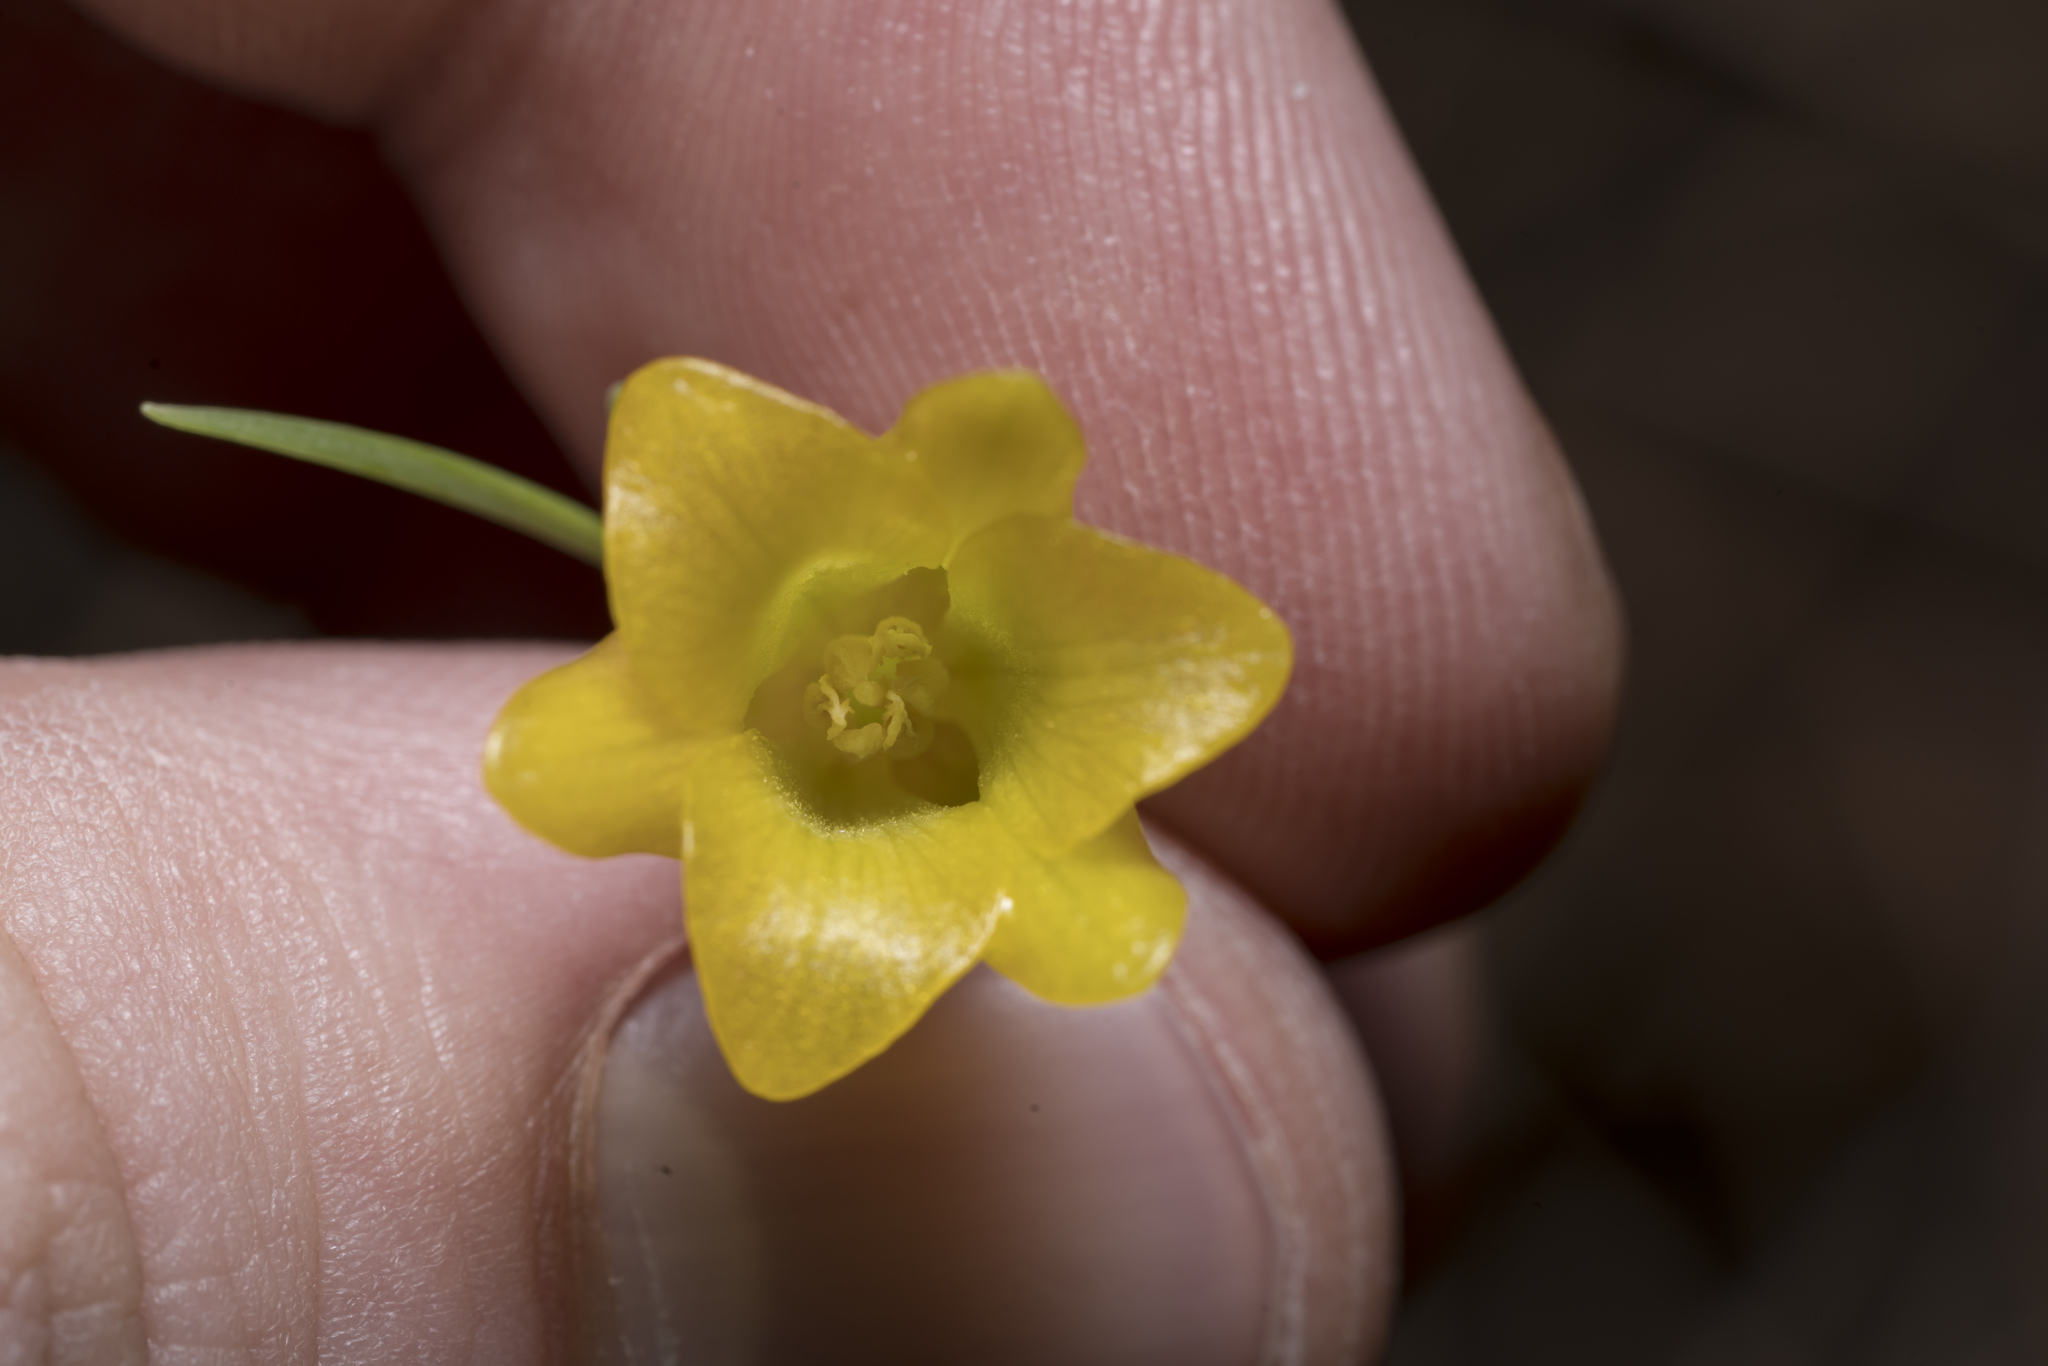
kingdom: Plantae
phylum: Tracheophyta
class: Liliopsida
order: Liliales
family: Liliaceae
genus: Fritillaria
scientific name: Fritillaria rhodia
